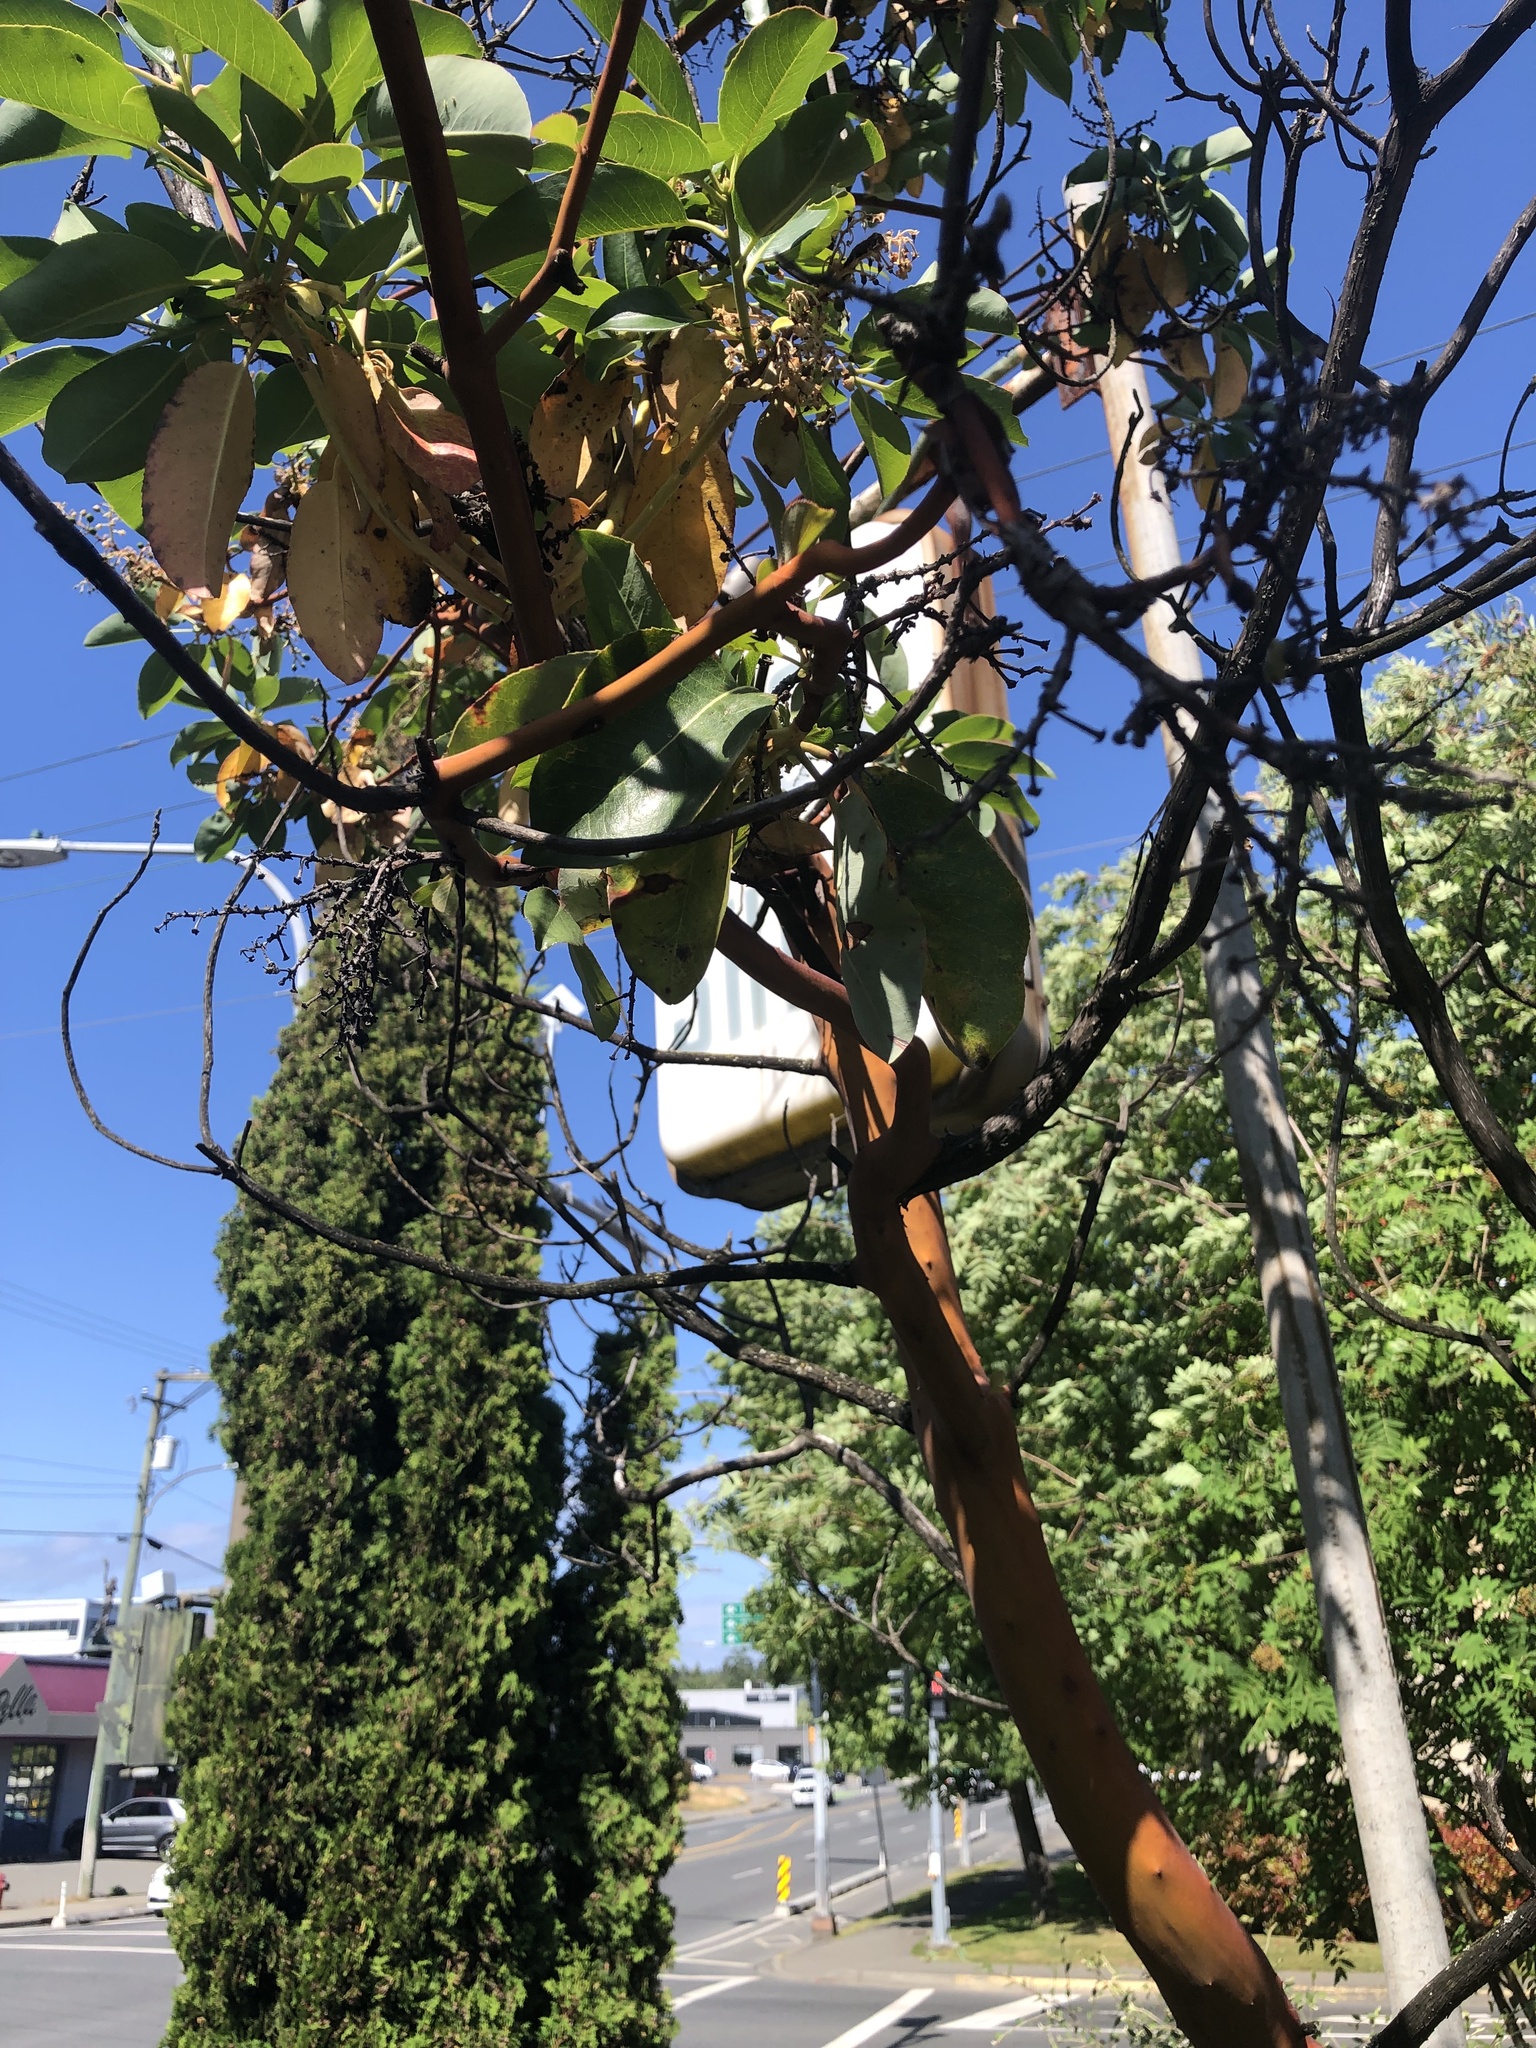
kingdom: Plantae
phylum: Tracheophyta
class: Magnoliopsida
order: Ericales
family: Ericaceae
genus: Arbutus
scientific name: Arbutus menziesii
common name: Pacific madrone
